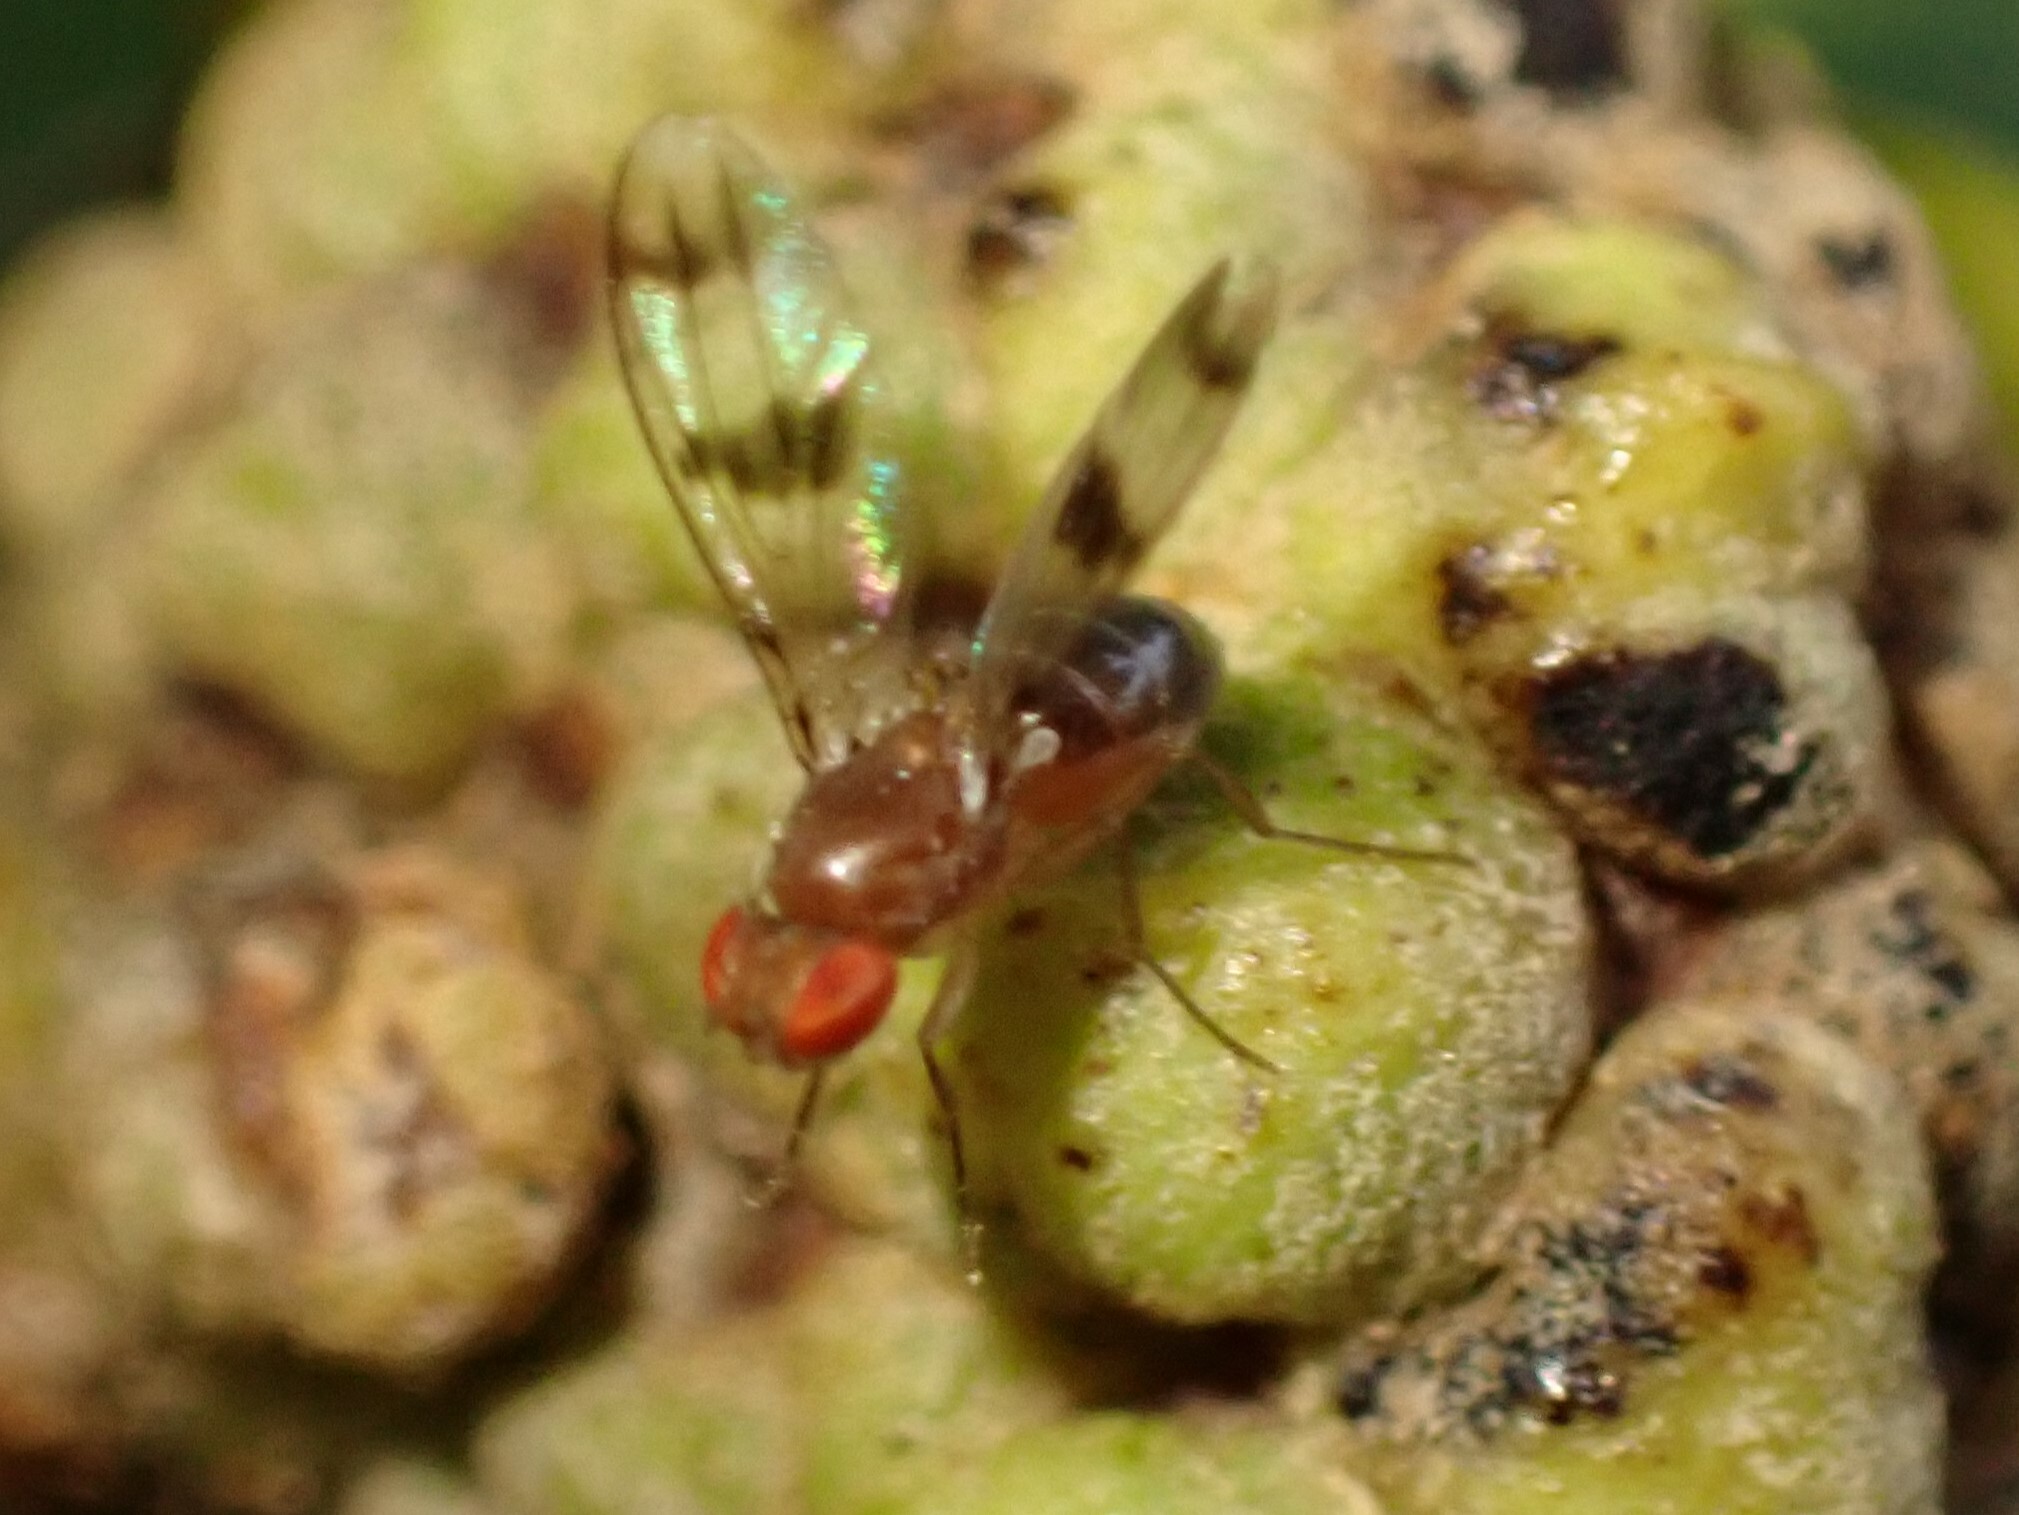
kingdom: Animalia
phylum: Arthropoda
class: Insecta
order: Diptera
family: Drosophilidae
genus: Chymomyza
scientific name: Chymomyza amoena
